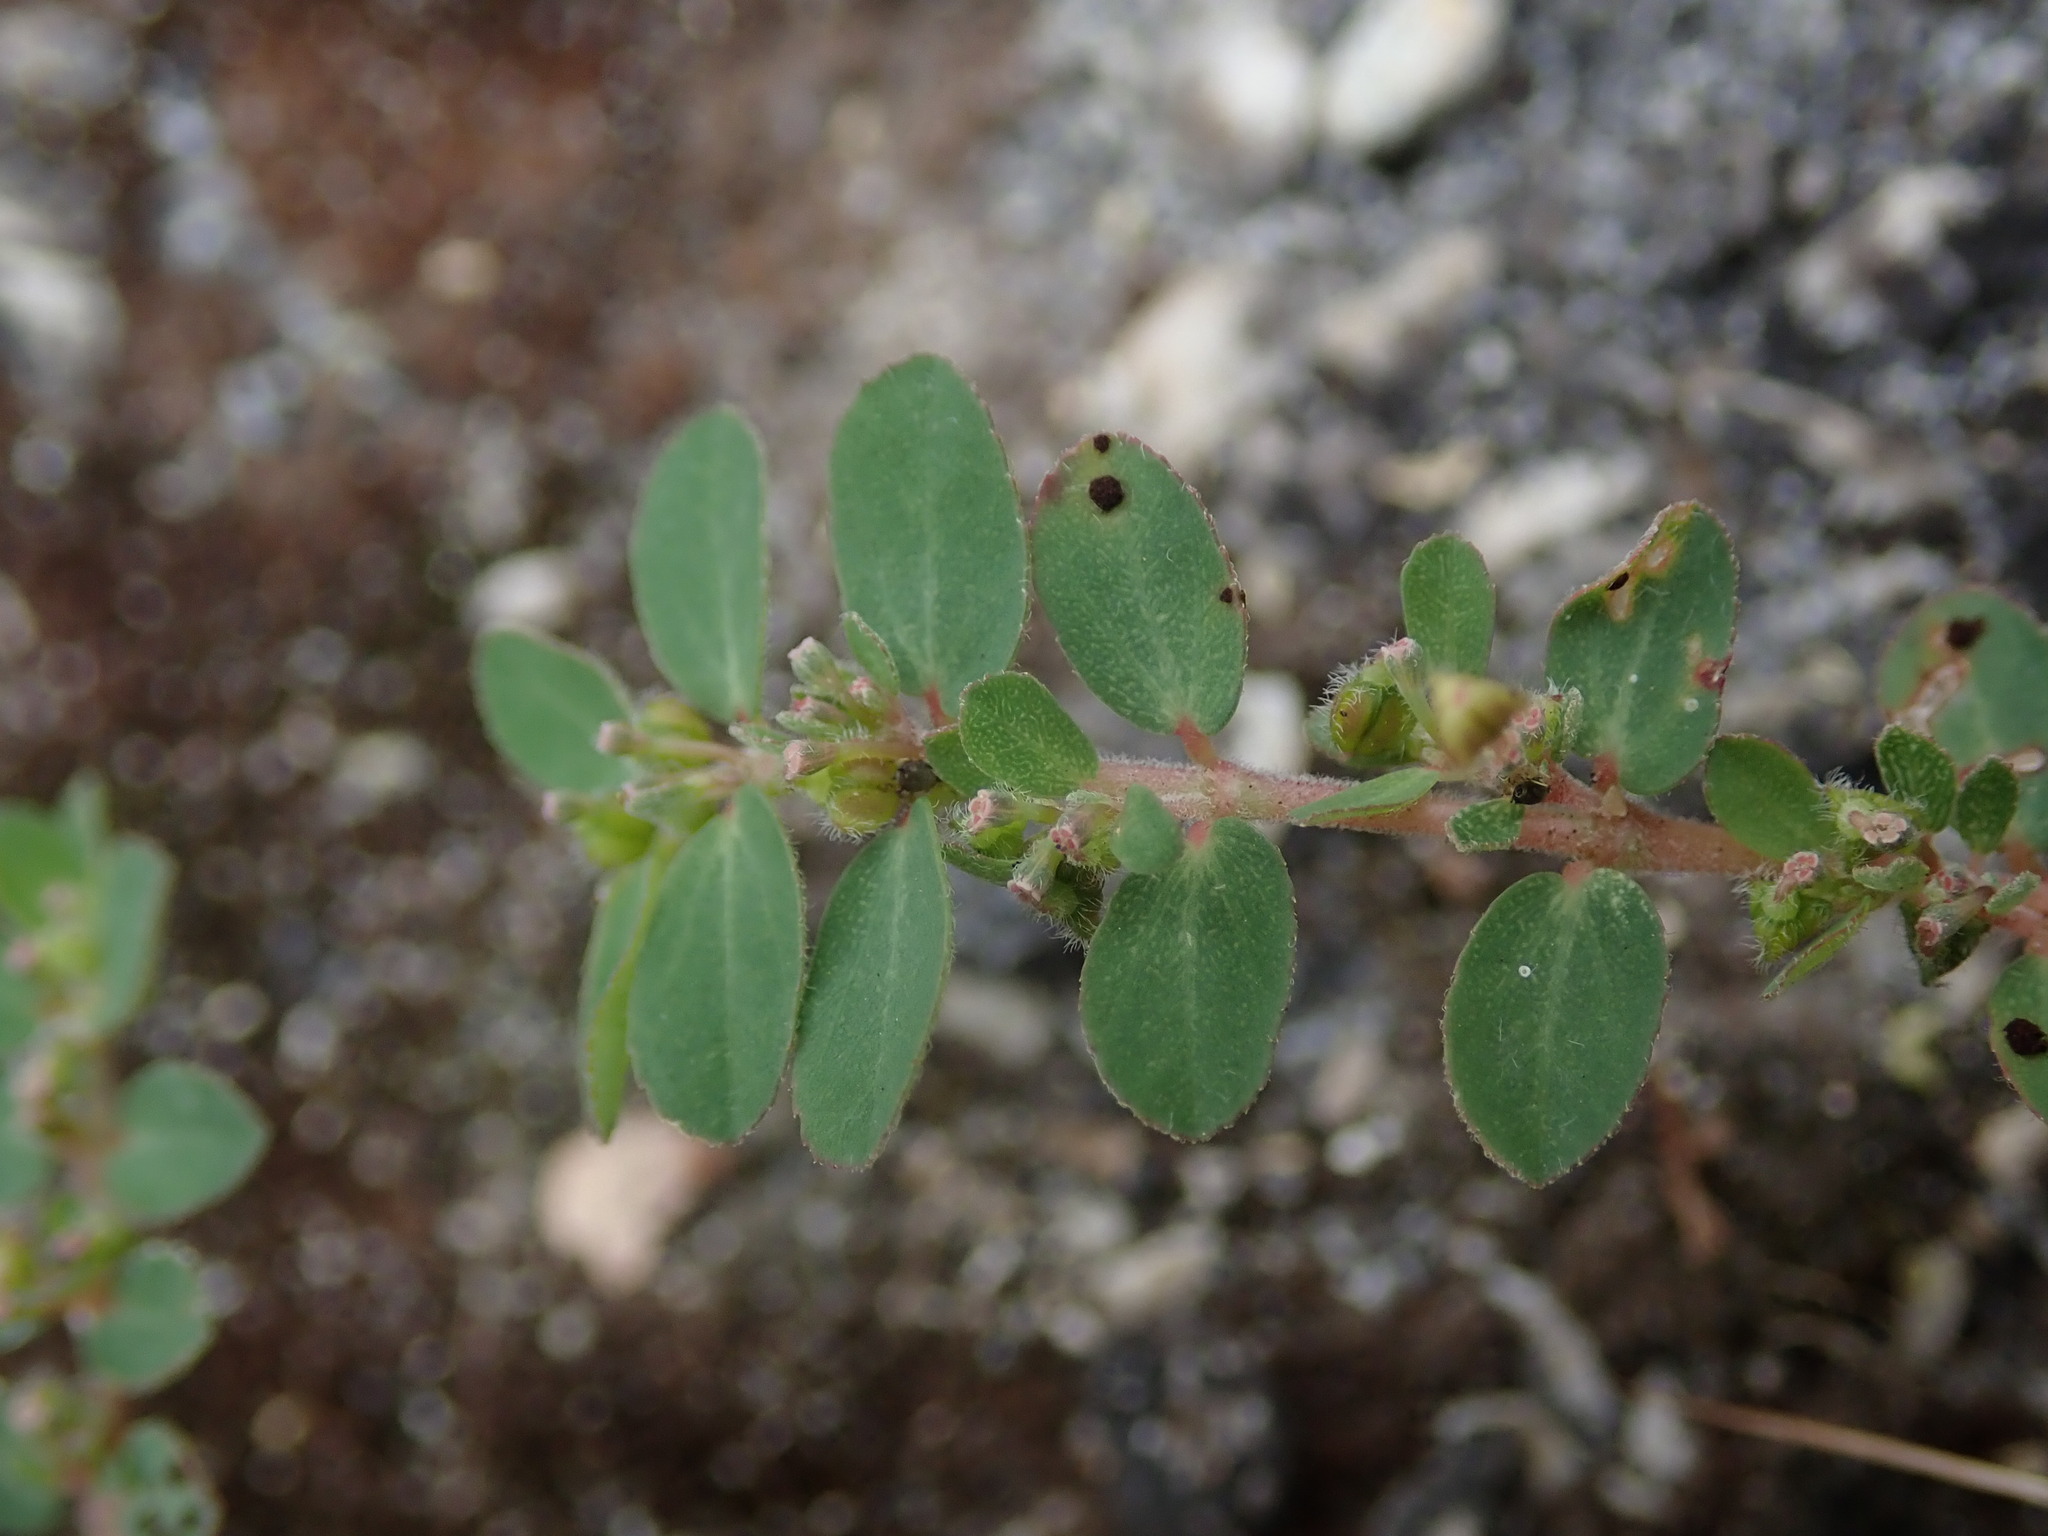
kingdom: Plantae
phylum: Tracheophyta
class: Magnoliopsida
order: Malpighiales
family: Euphorbiaceae
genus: Euphorbia
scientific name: Euphorbia prostrata
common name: Prostrate sandmat
